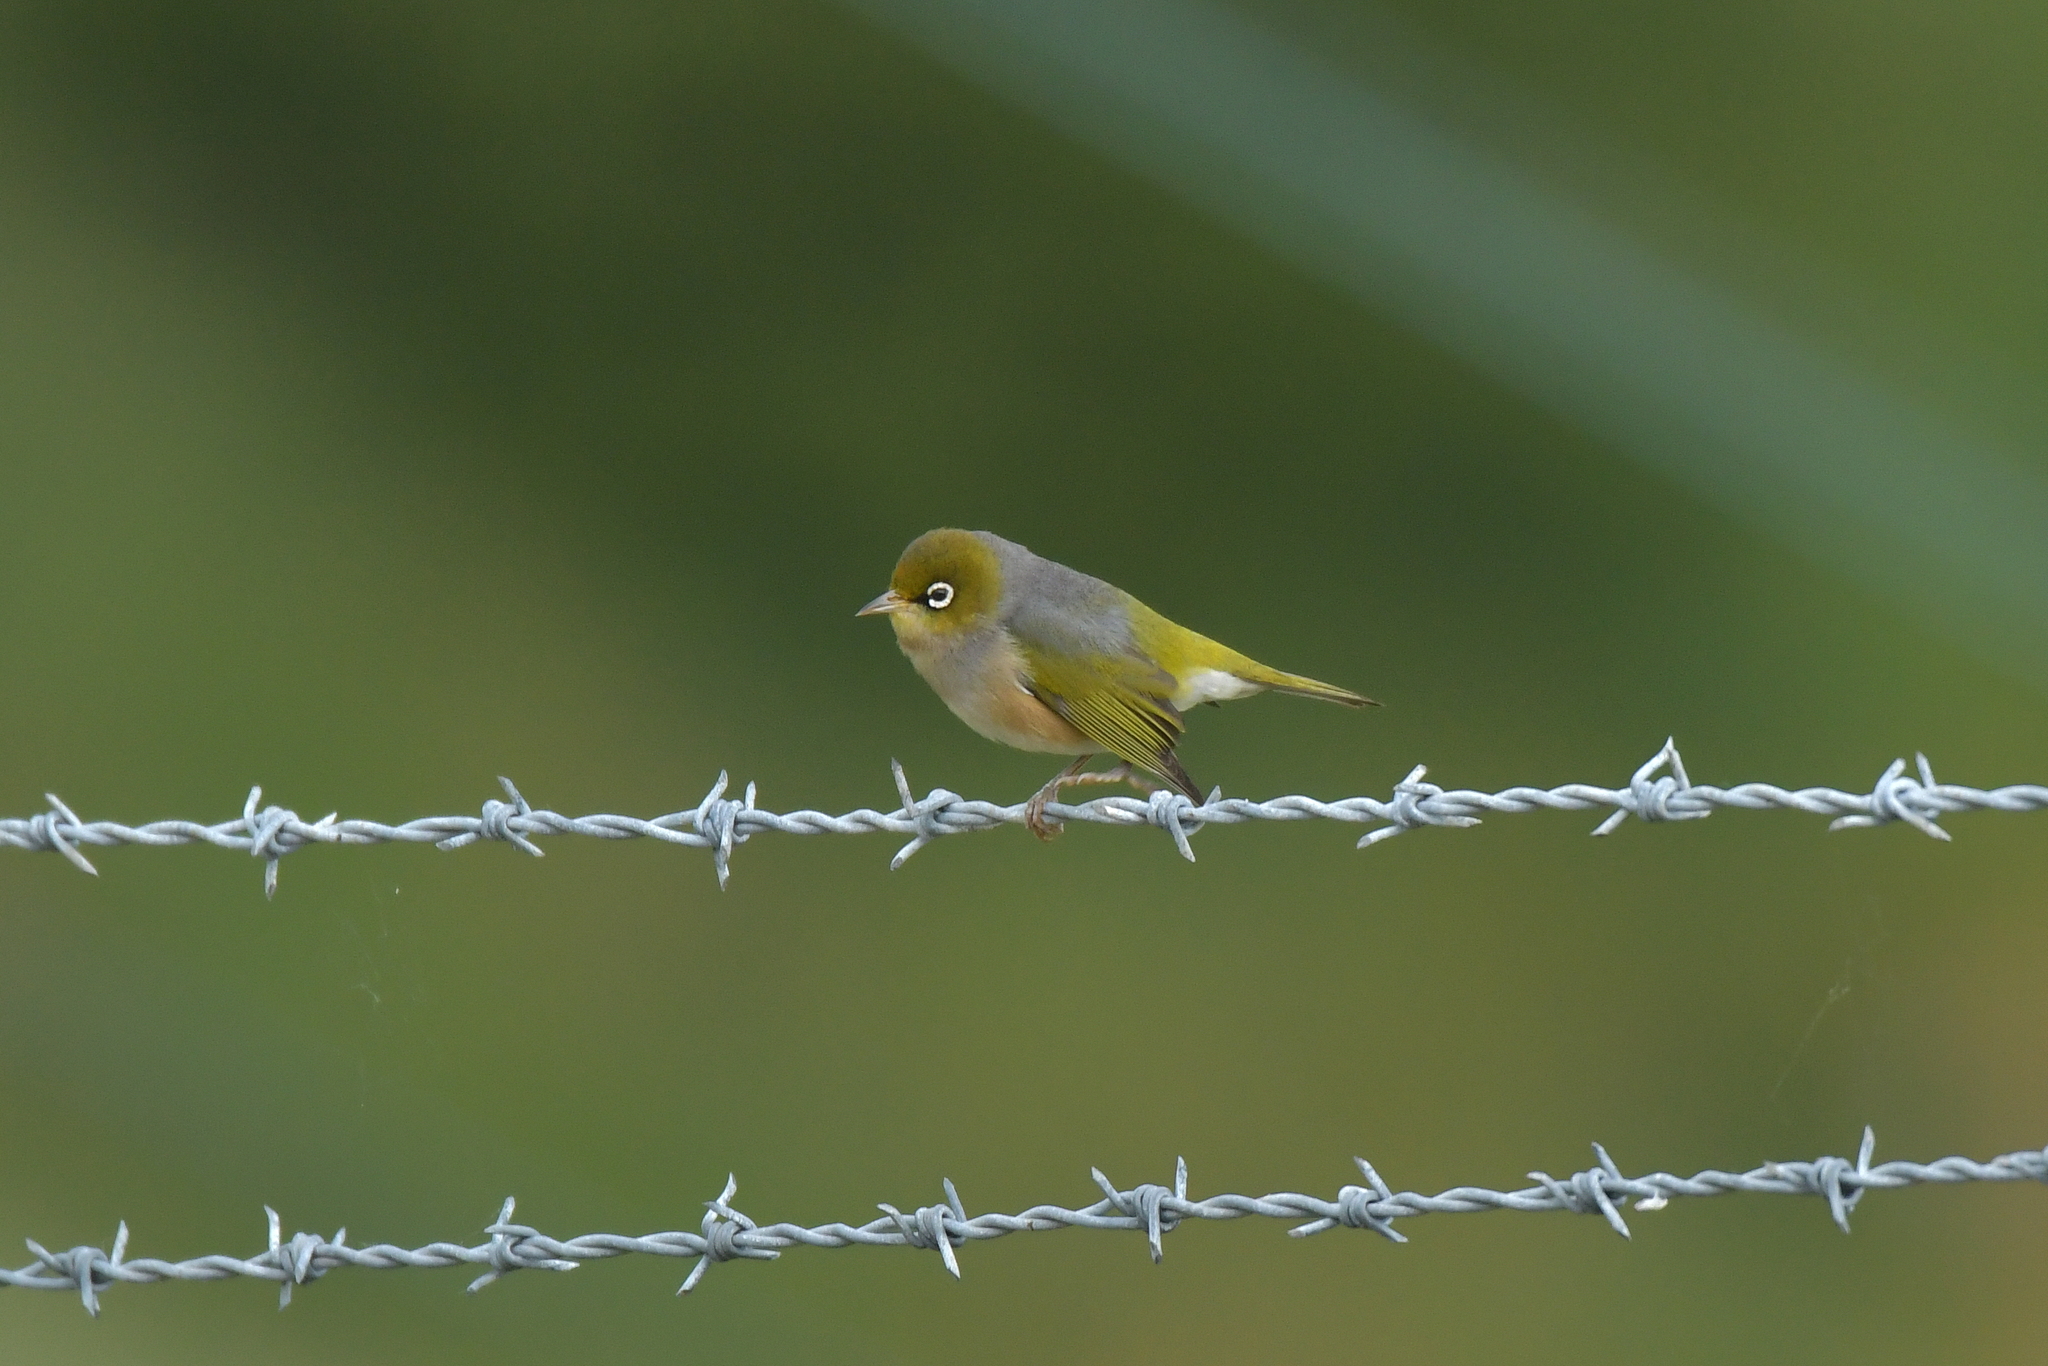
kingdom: Animalia
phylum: Chordata
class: Aves
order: Passeriformes
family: Zosteropidae
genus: Zosterops
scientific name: Zosterops lateralis
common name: Silvereye
